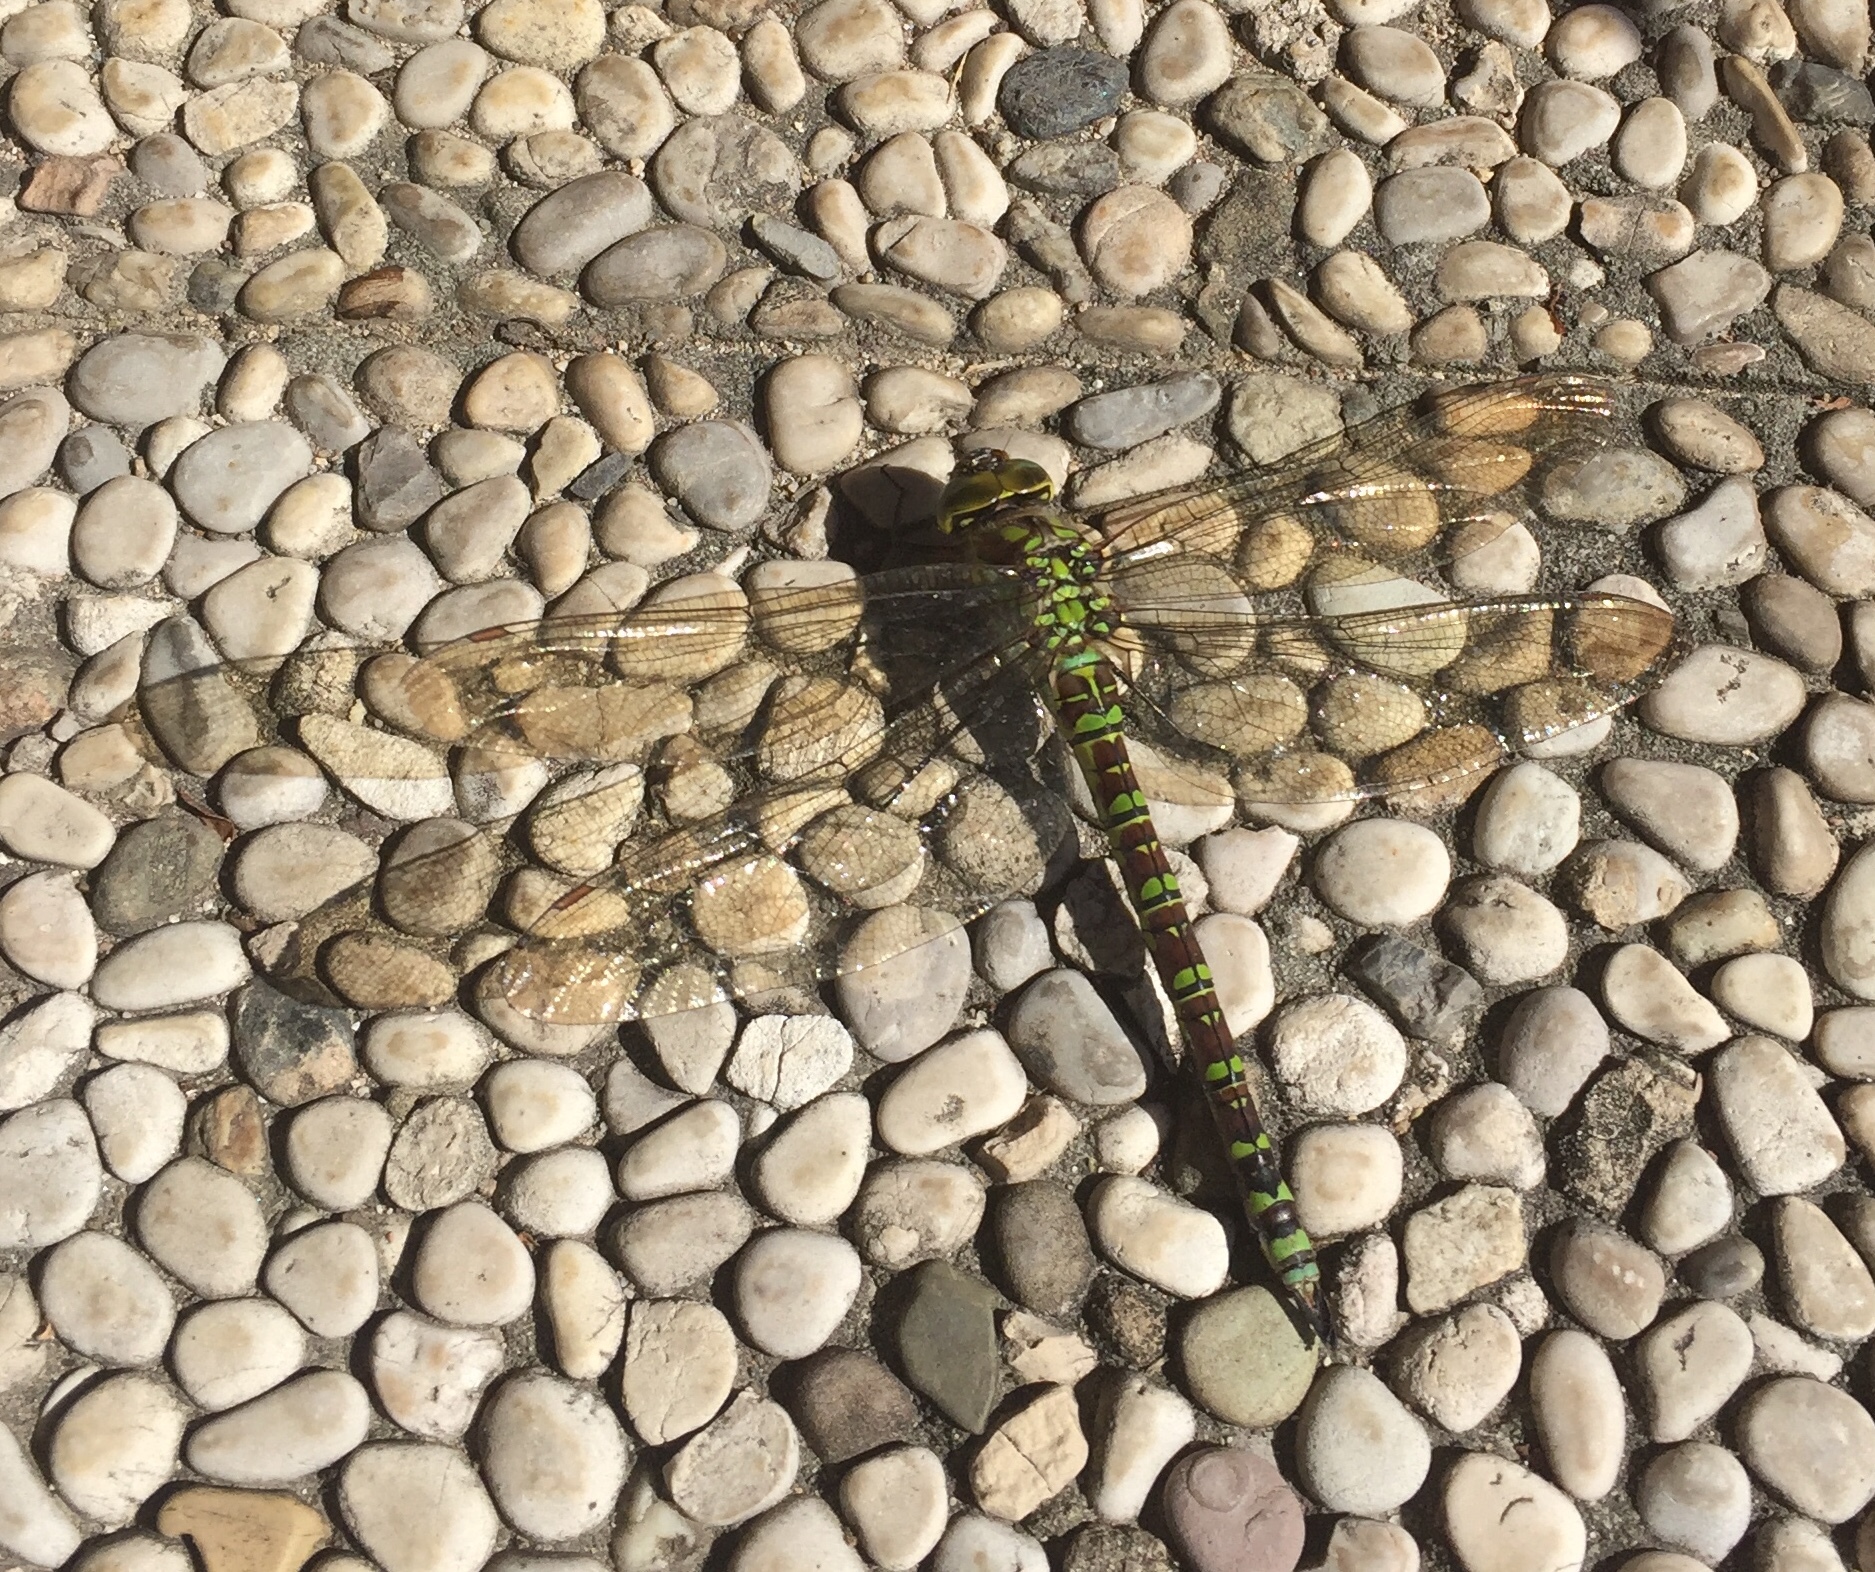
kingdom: Animalia
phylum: Arthropoda
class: Insecta
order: Odonata
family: Aeshnidae
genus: Aeshna
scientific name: Aeshna cyanea
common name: Southern hawker
